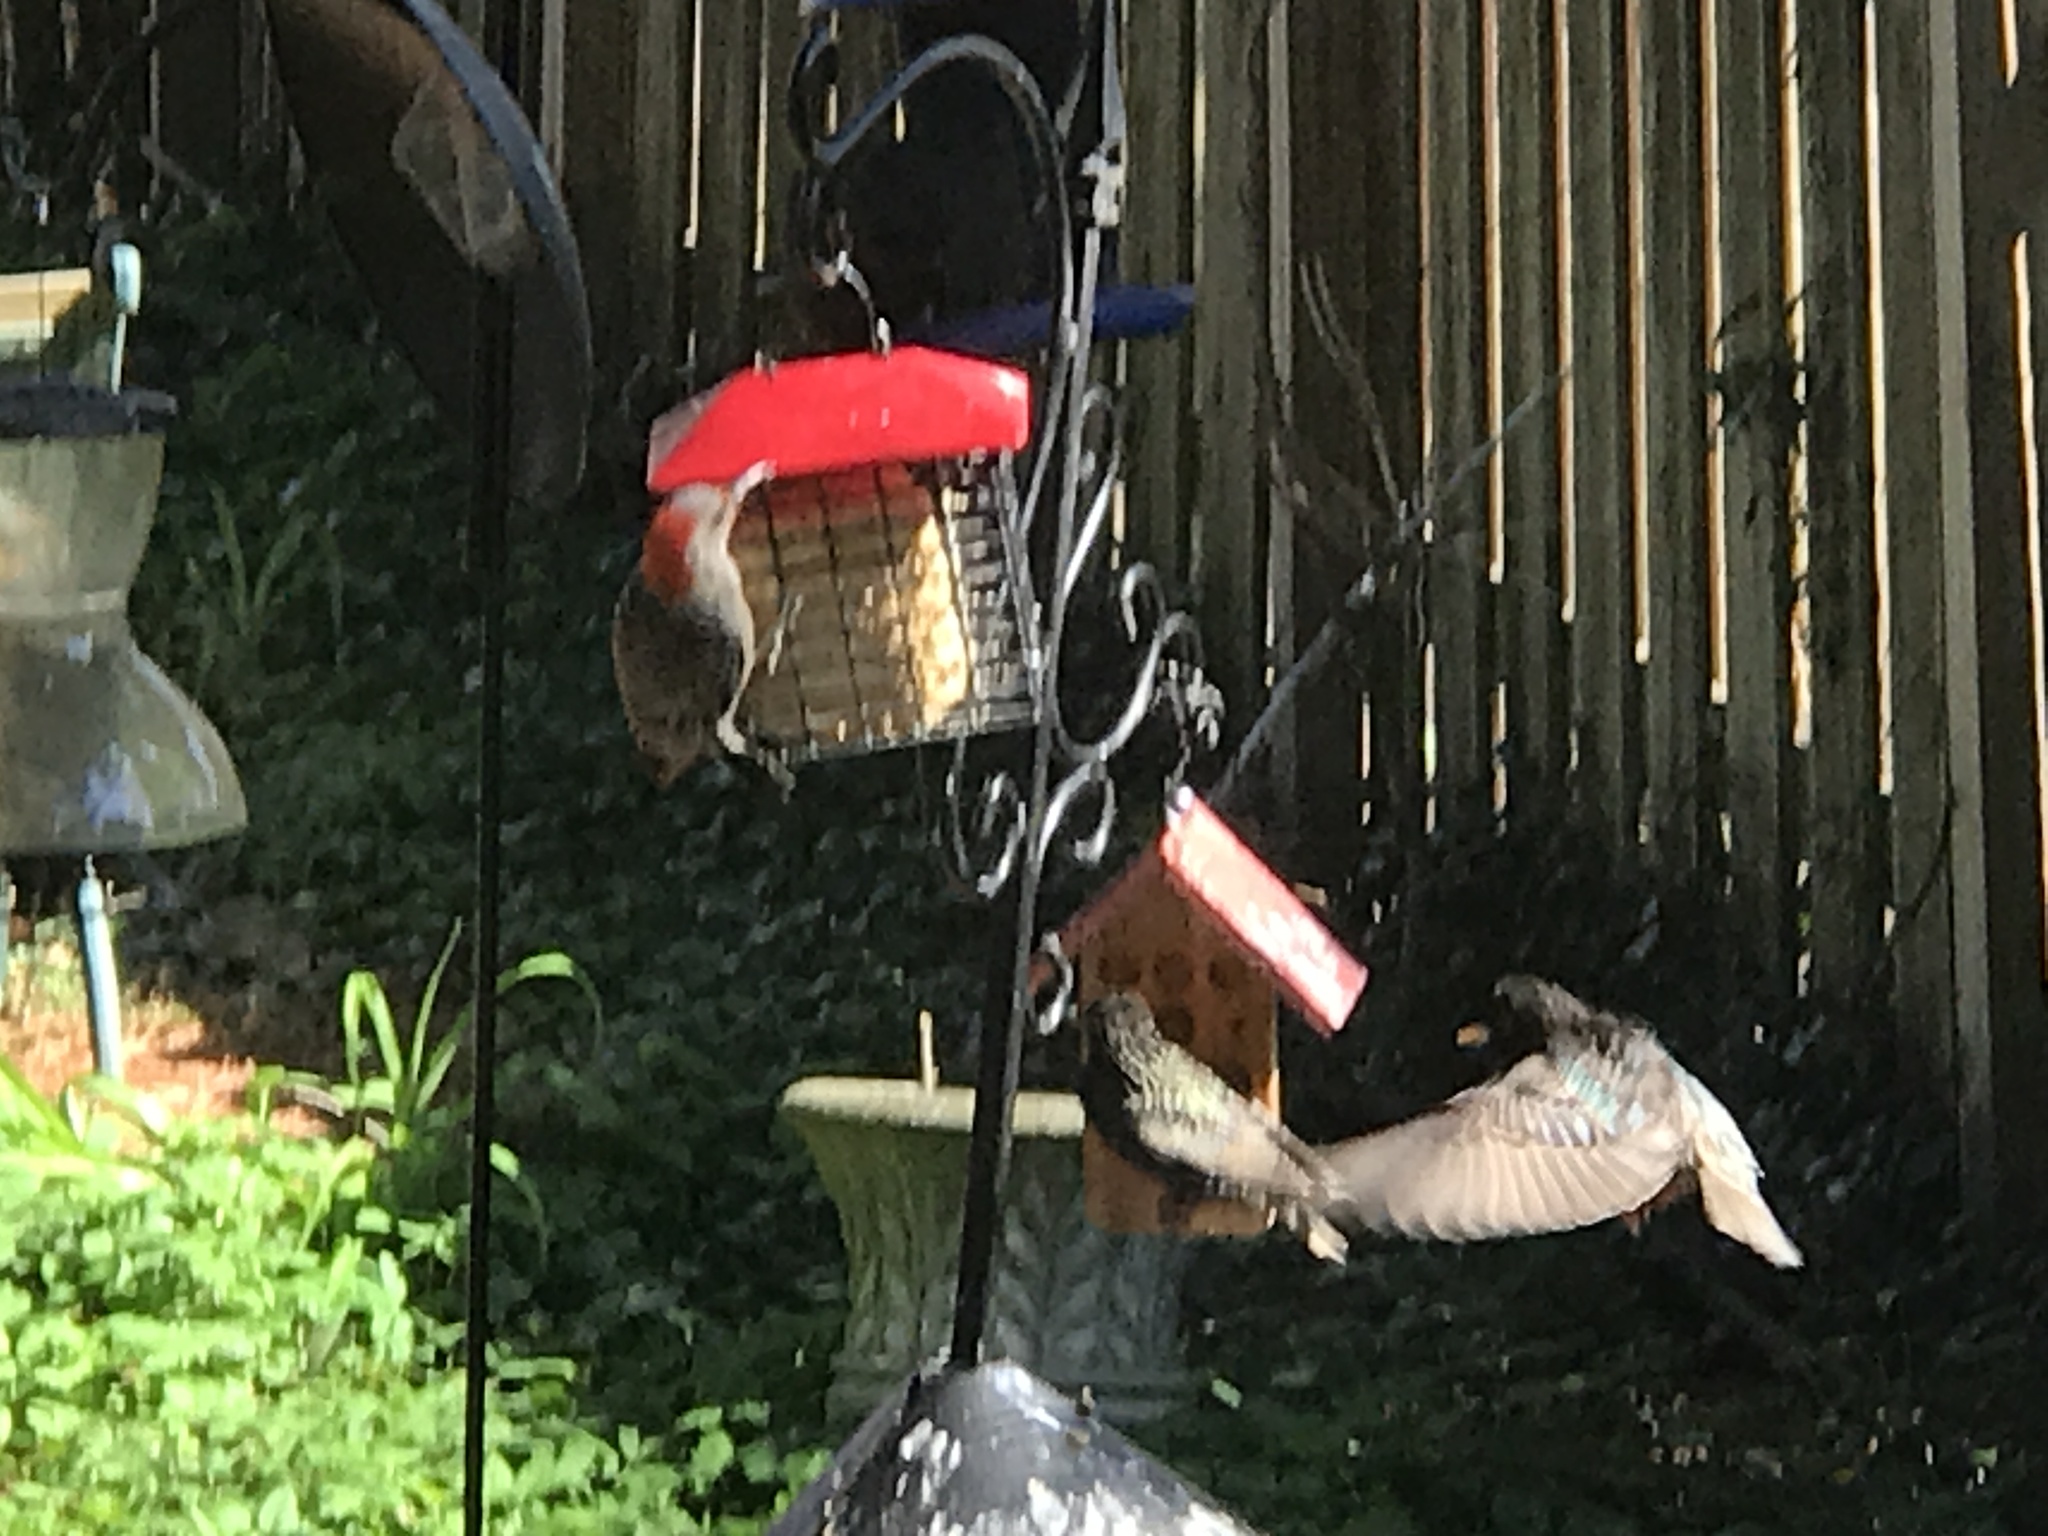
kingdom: Animalia
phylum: Chordata
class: Aves
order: Piciformes
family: Picidae
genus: Melanerpes
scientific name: Melanerpes carolinus
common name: Red-bellied woodpecker
